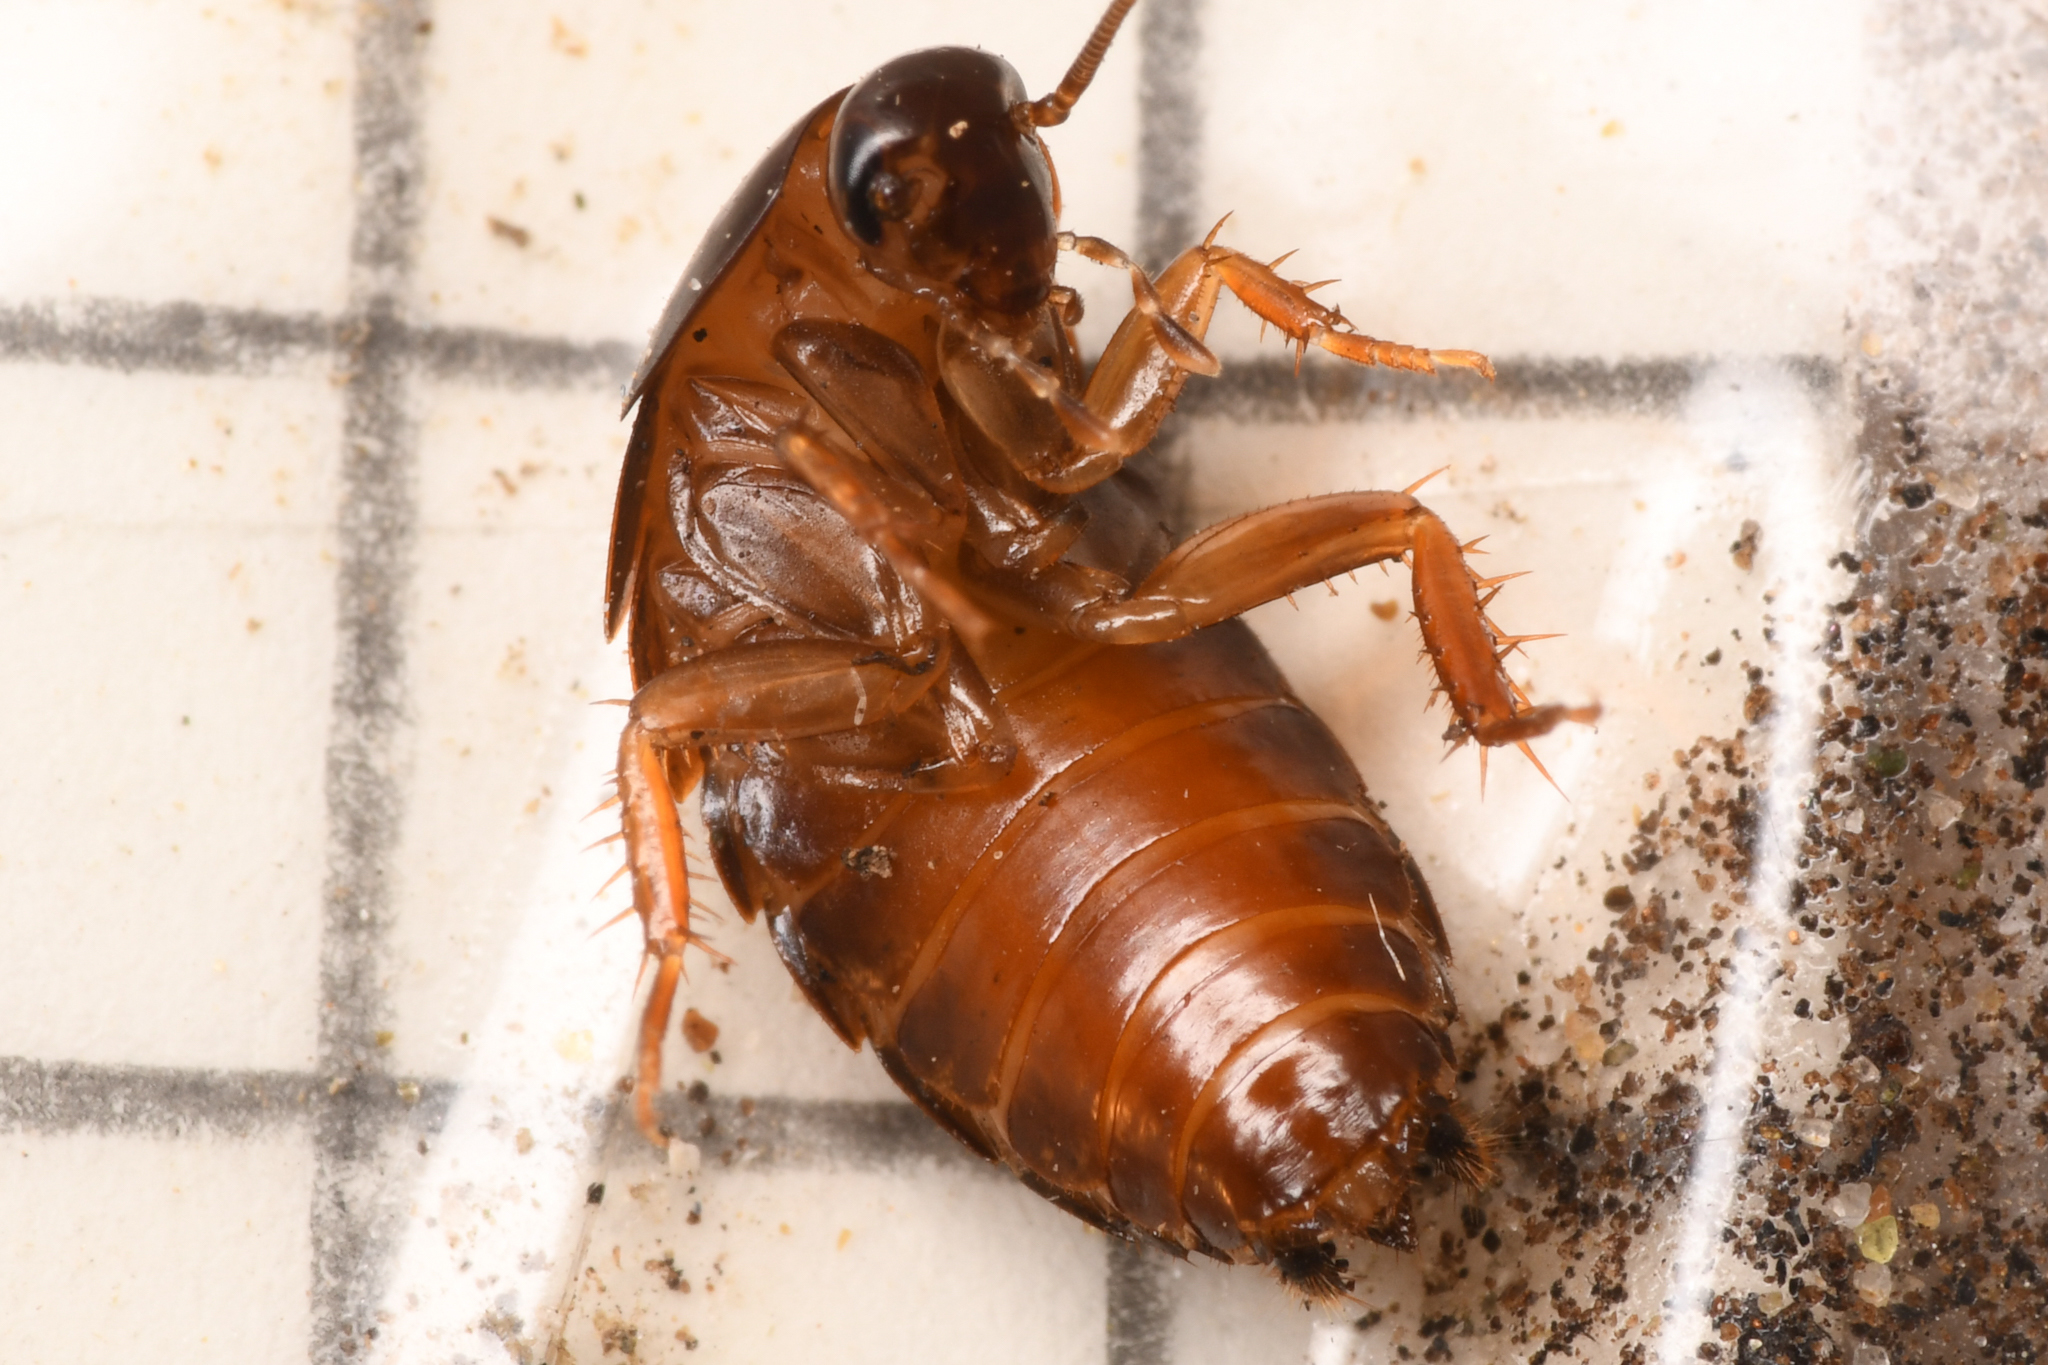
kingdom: Animalia
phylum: Arthropoda
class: Insecta
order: Blattodea
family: Ectobiidae
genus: Parcoblatta
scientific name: Parcoblatta americana
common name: Western wood cockroach
